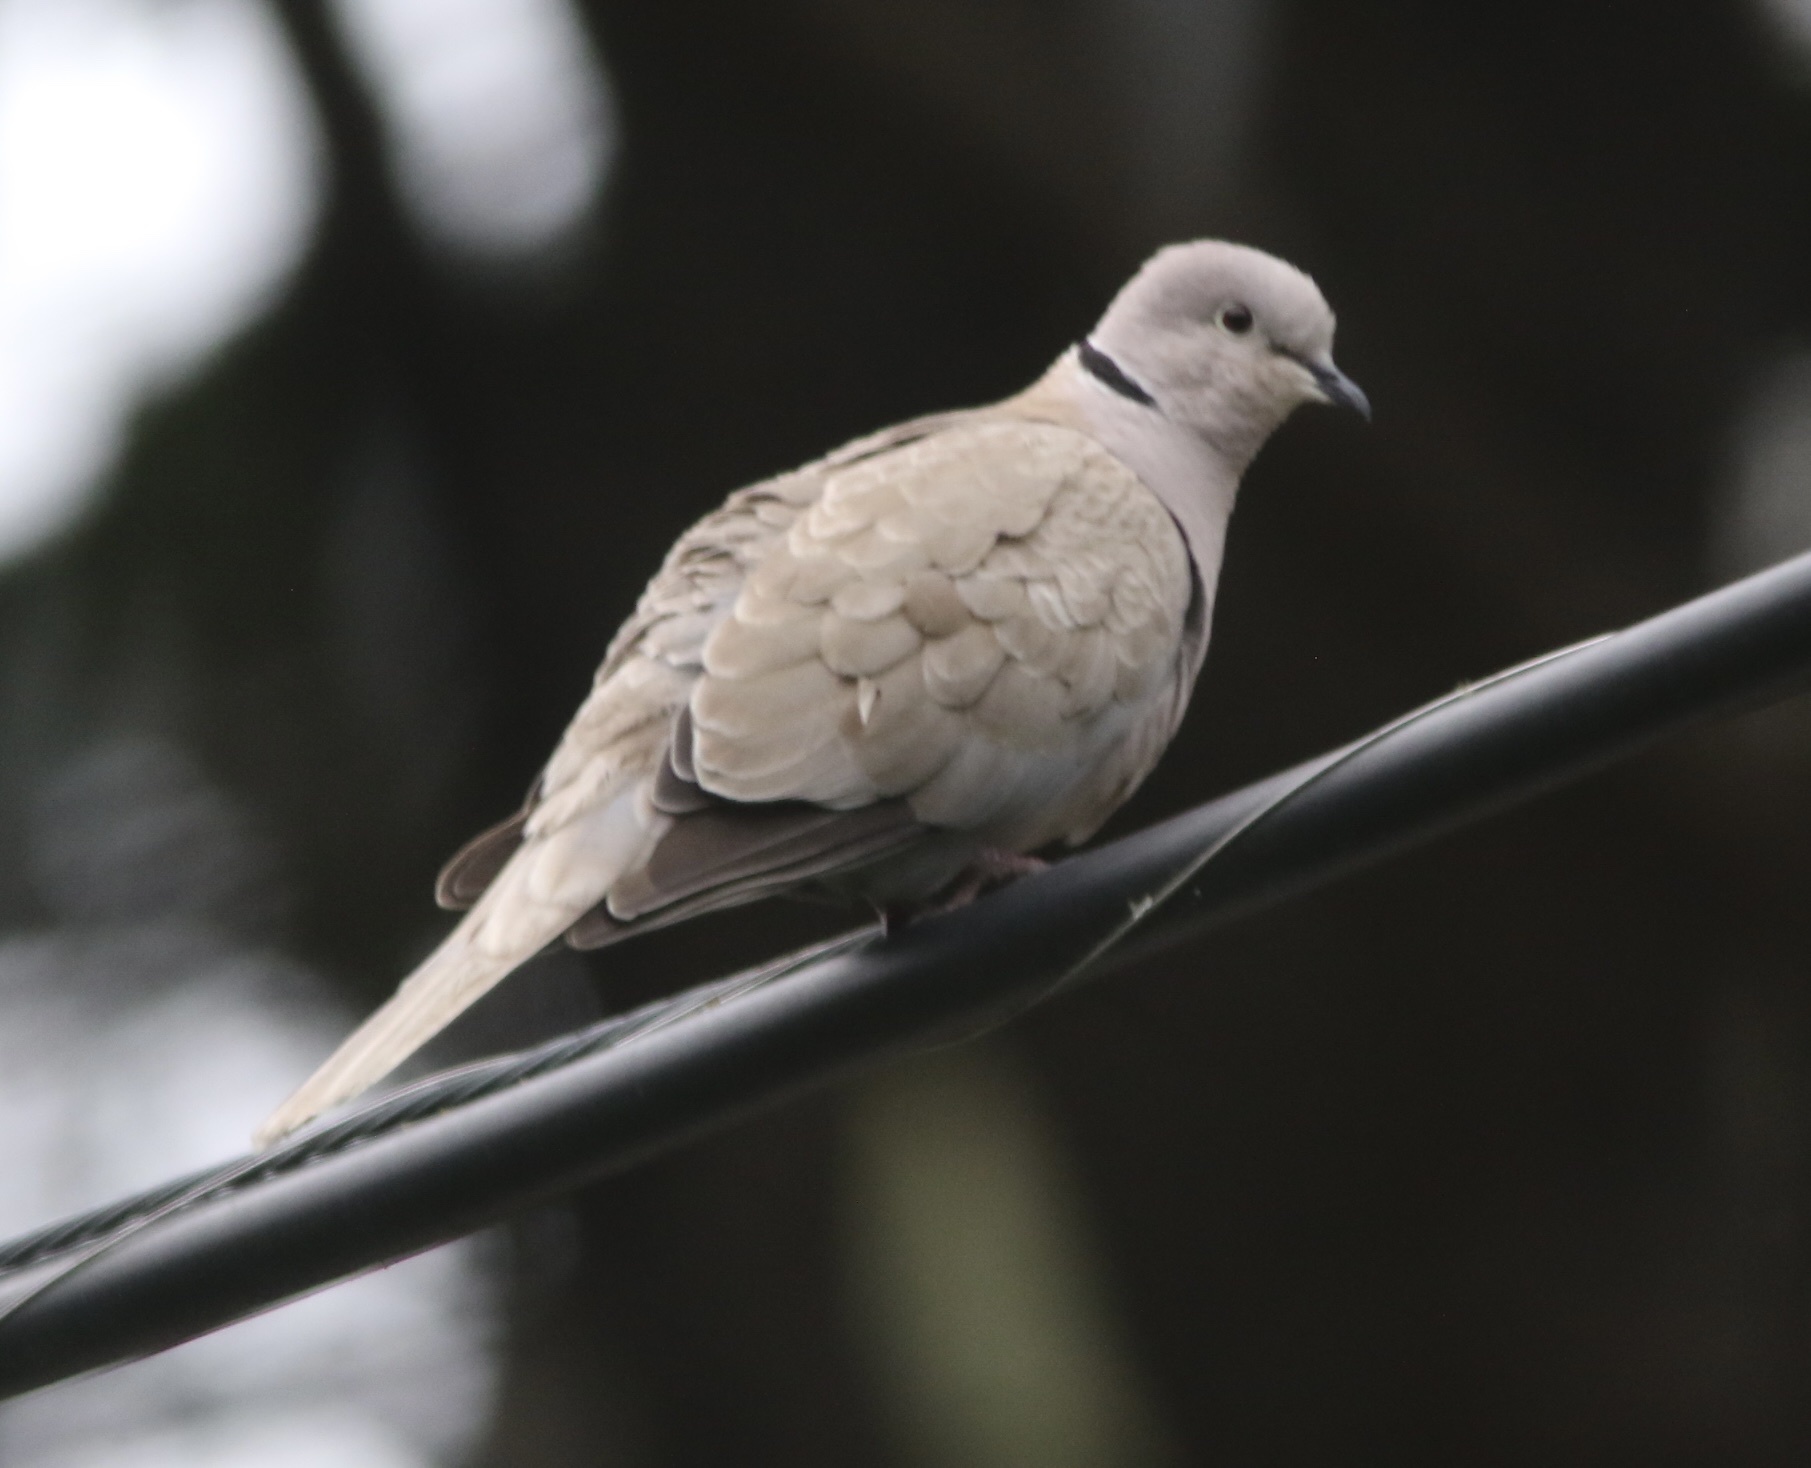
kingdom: Animalia
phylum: Chordata
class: Aves
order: Columbiformes
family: Columbidae
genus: Streptopelia
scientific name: Streptopelia decaocto
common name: Eurasian collared dove
